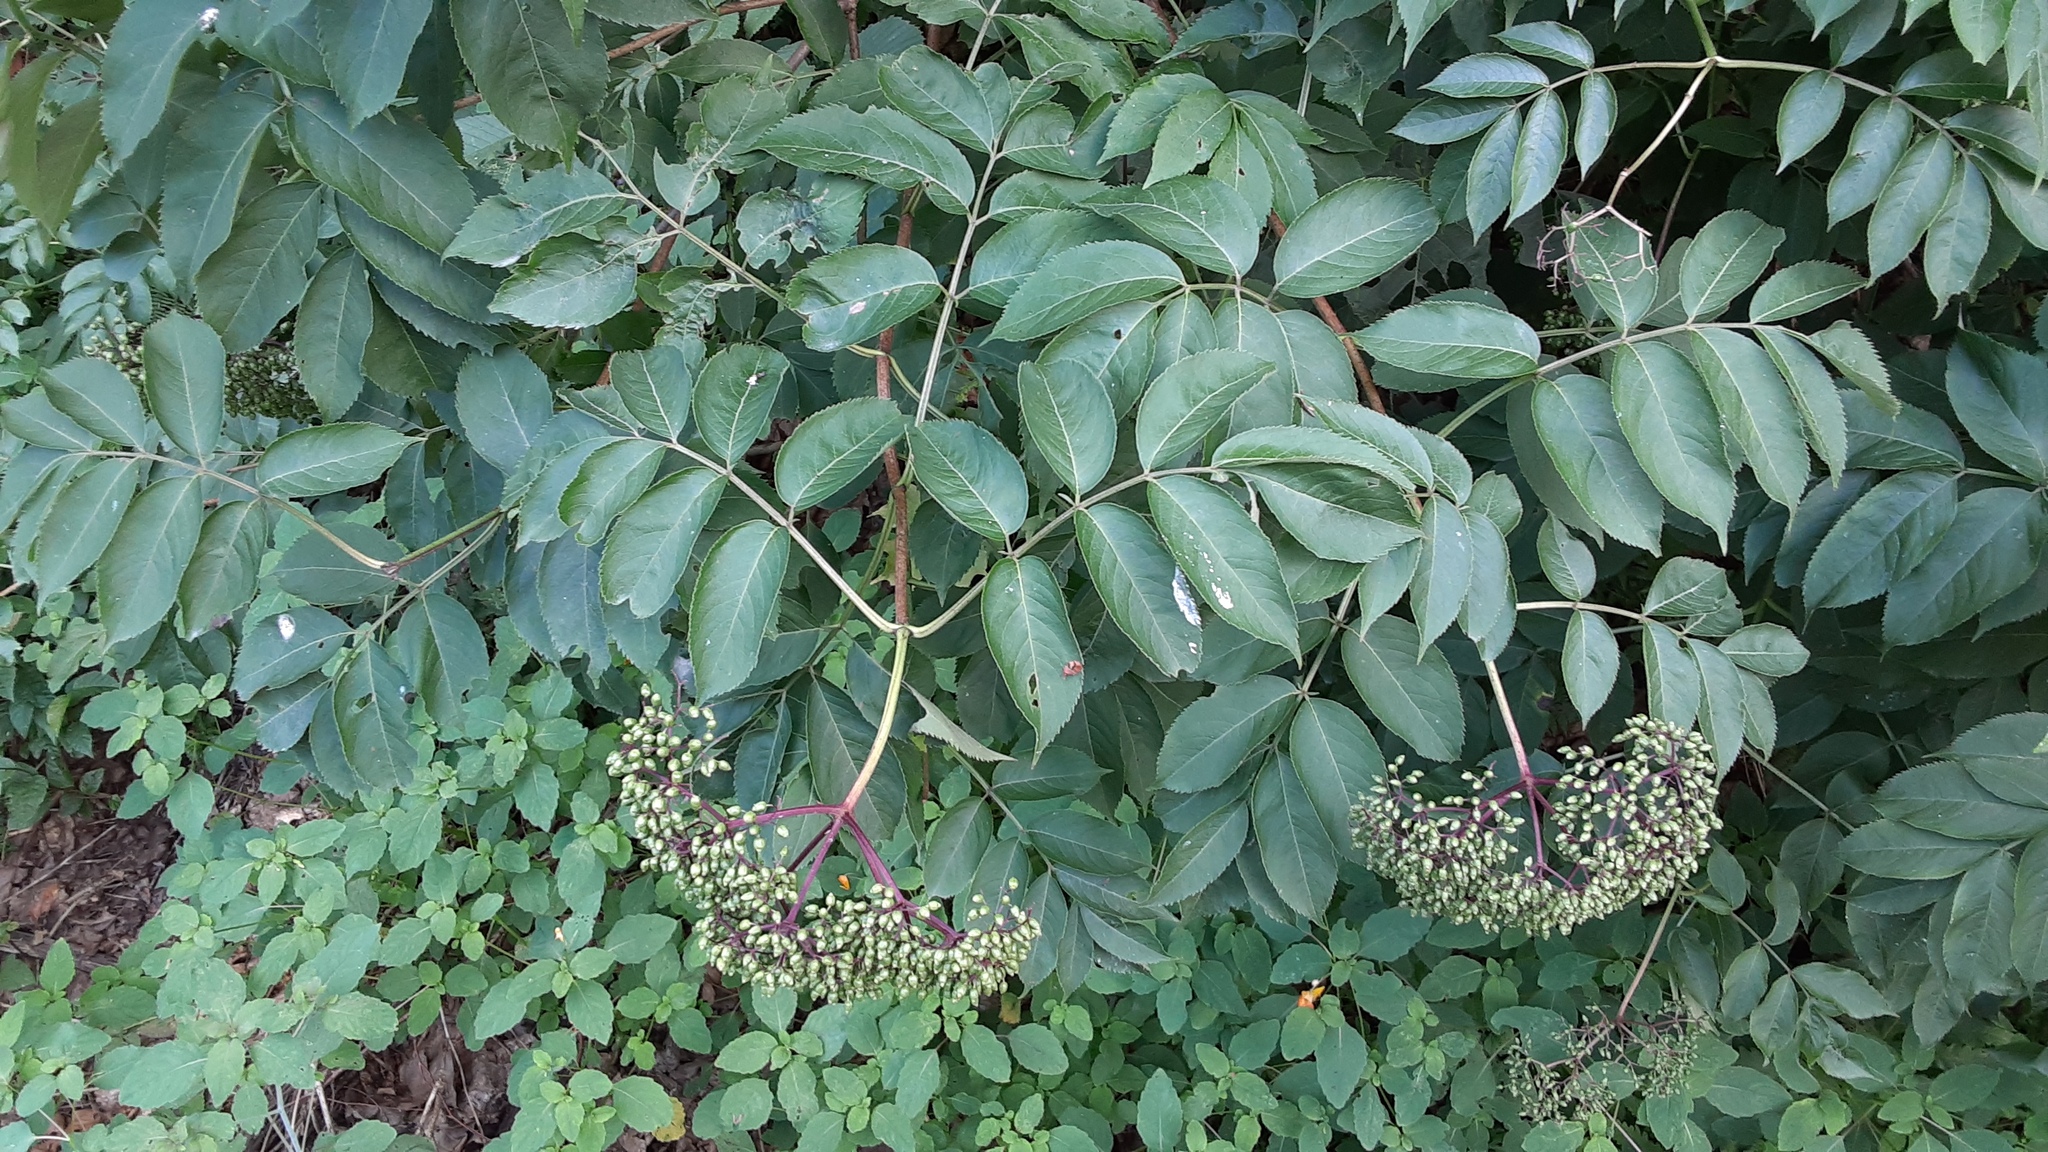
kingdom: Plantae
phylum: Tracheophyta
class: Magnoliopsida
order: Dipsacales
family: Viburnaceae
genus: Sambucus
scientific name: Sambucus canadensis
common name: American elder
